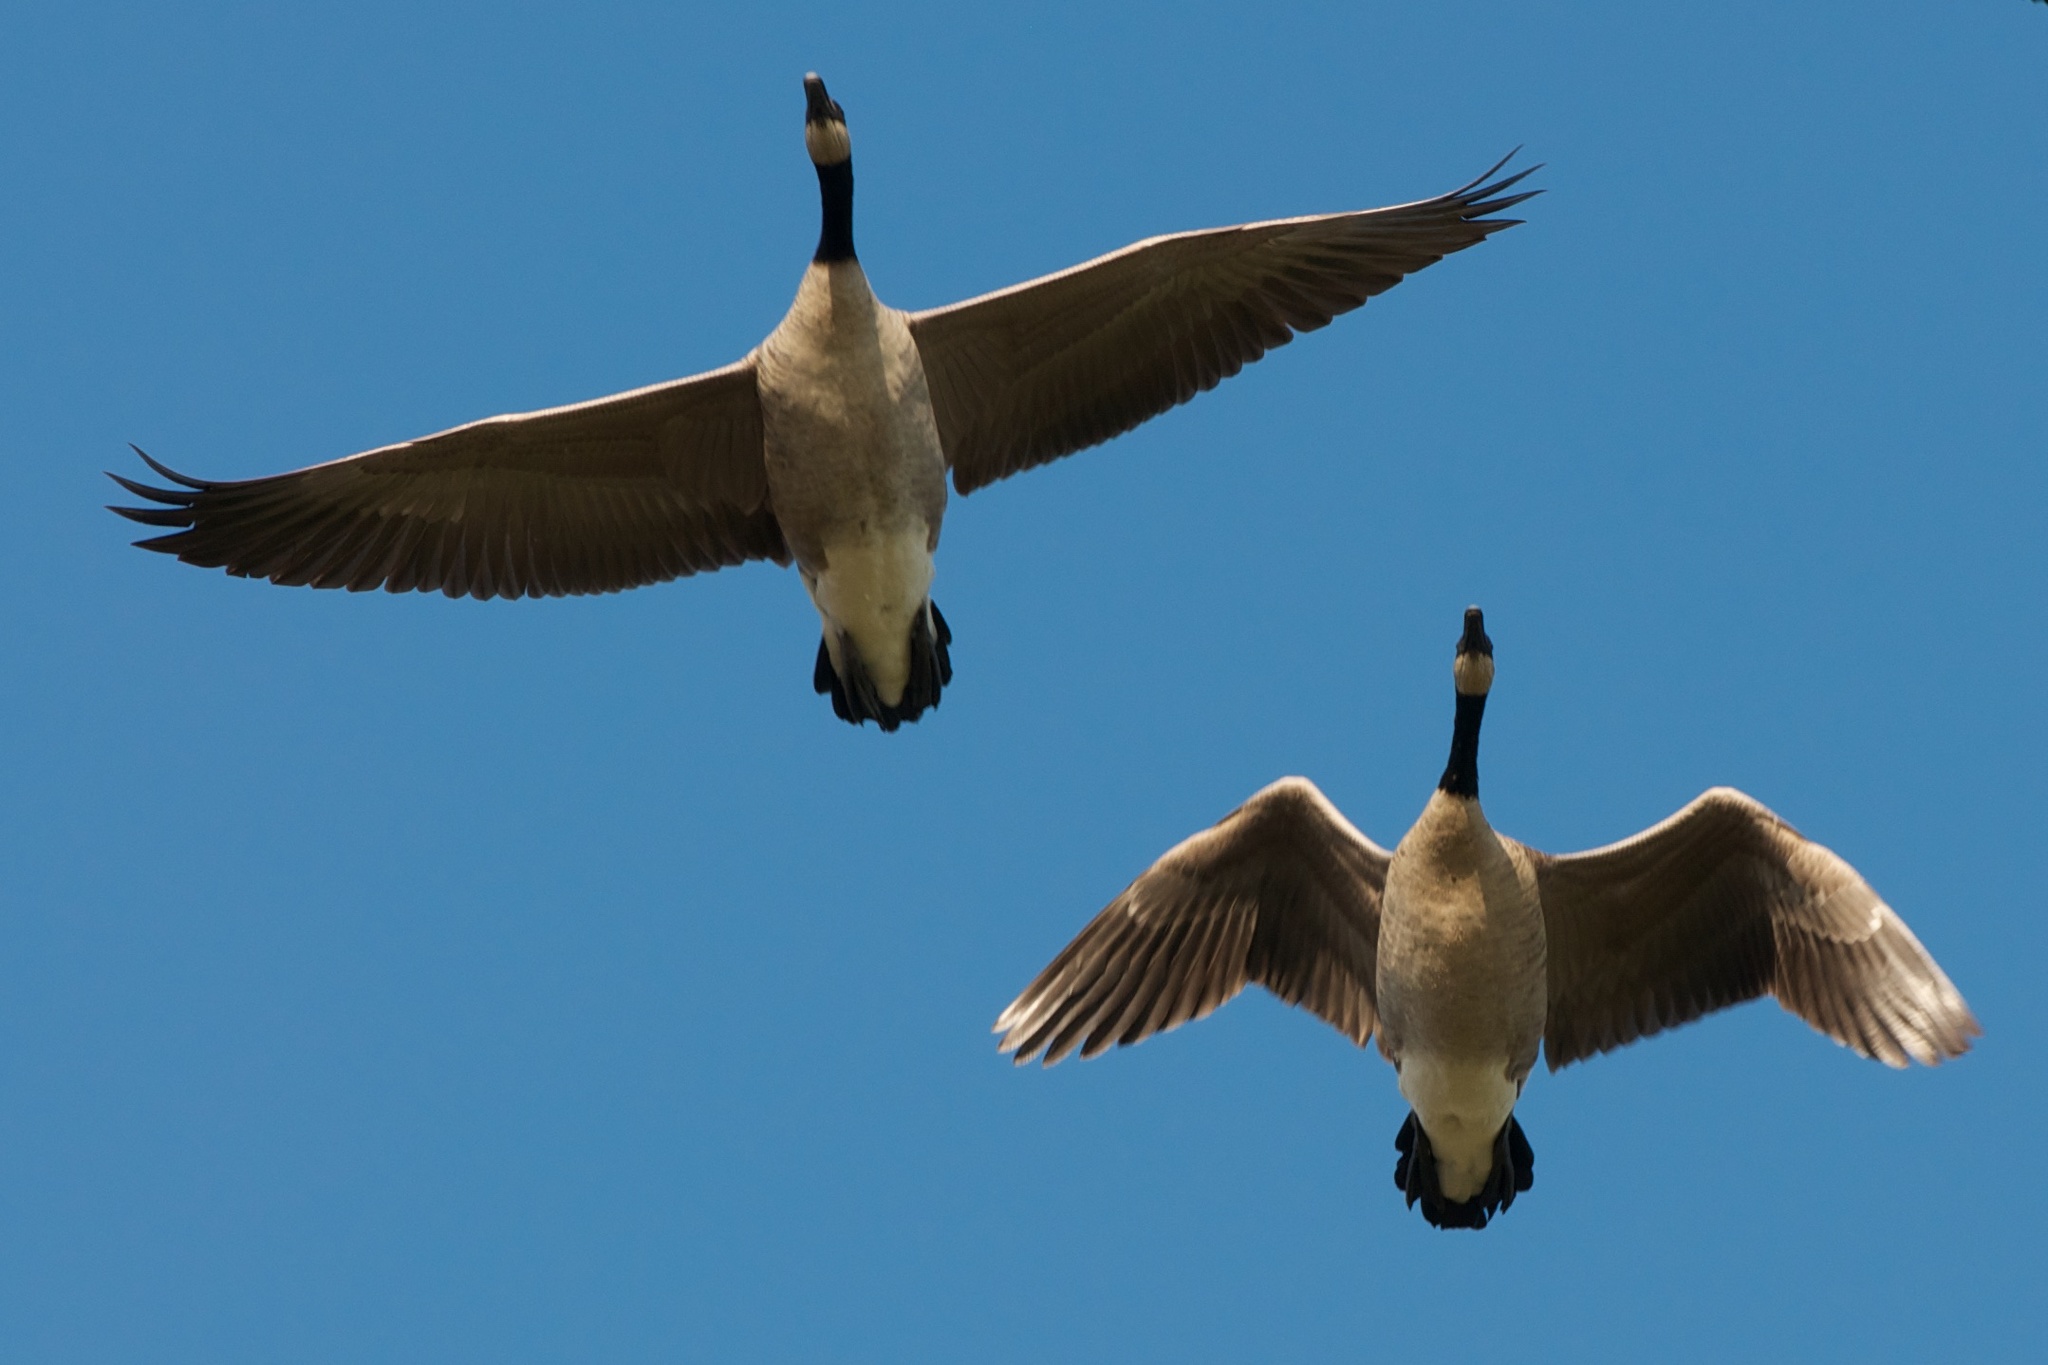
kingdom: Animalia
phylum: Chordata
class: Aves
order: Anseriformes
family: Anatidae
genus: Branta
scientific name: Branta canadensis
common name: Canada goose
